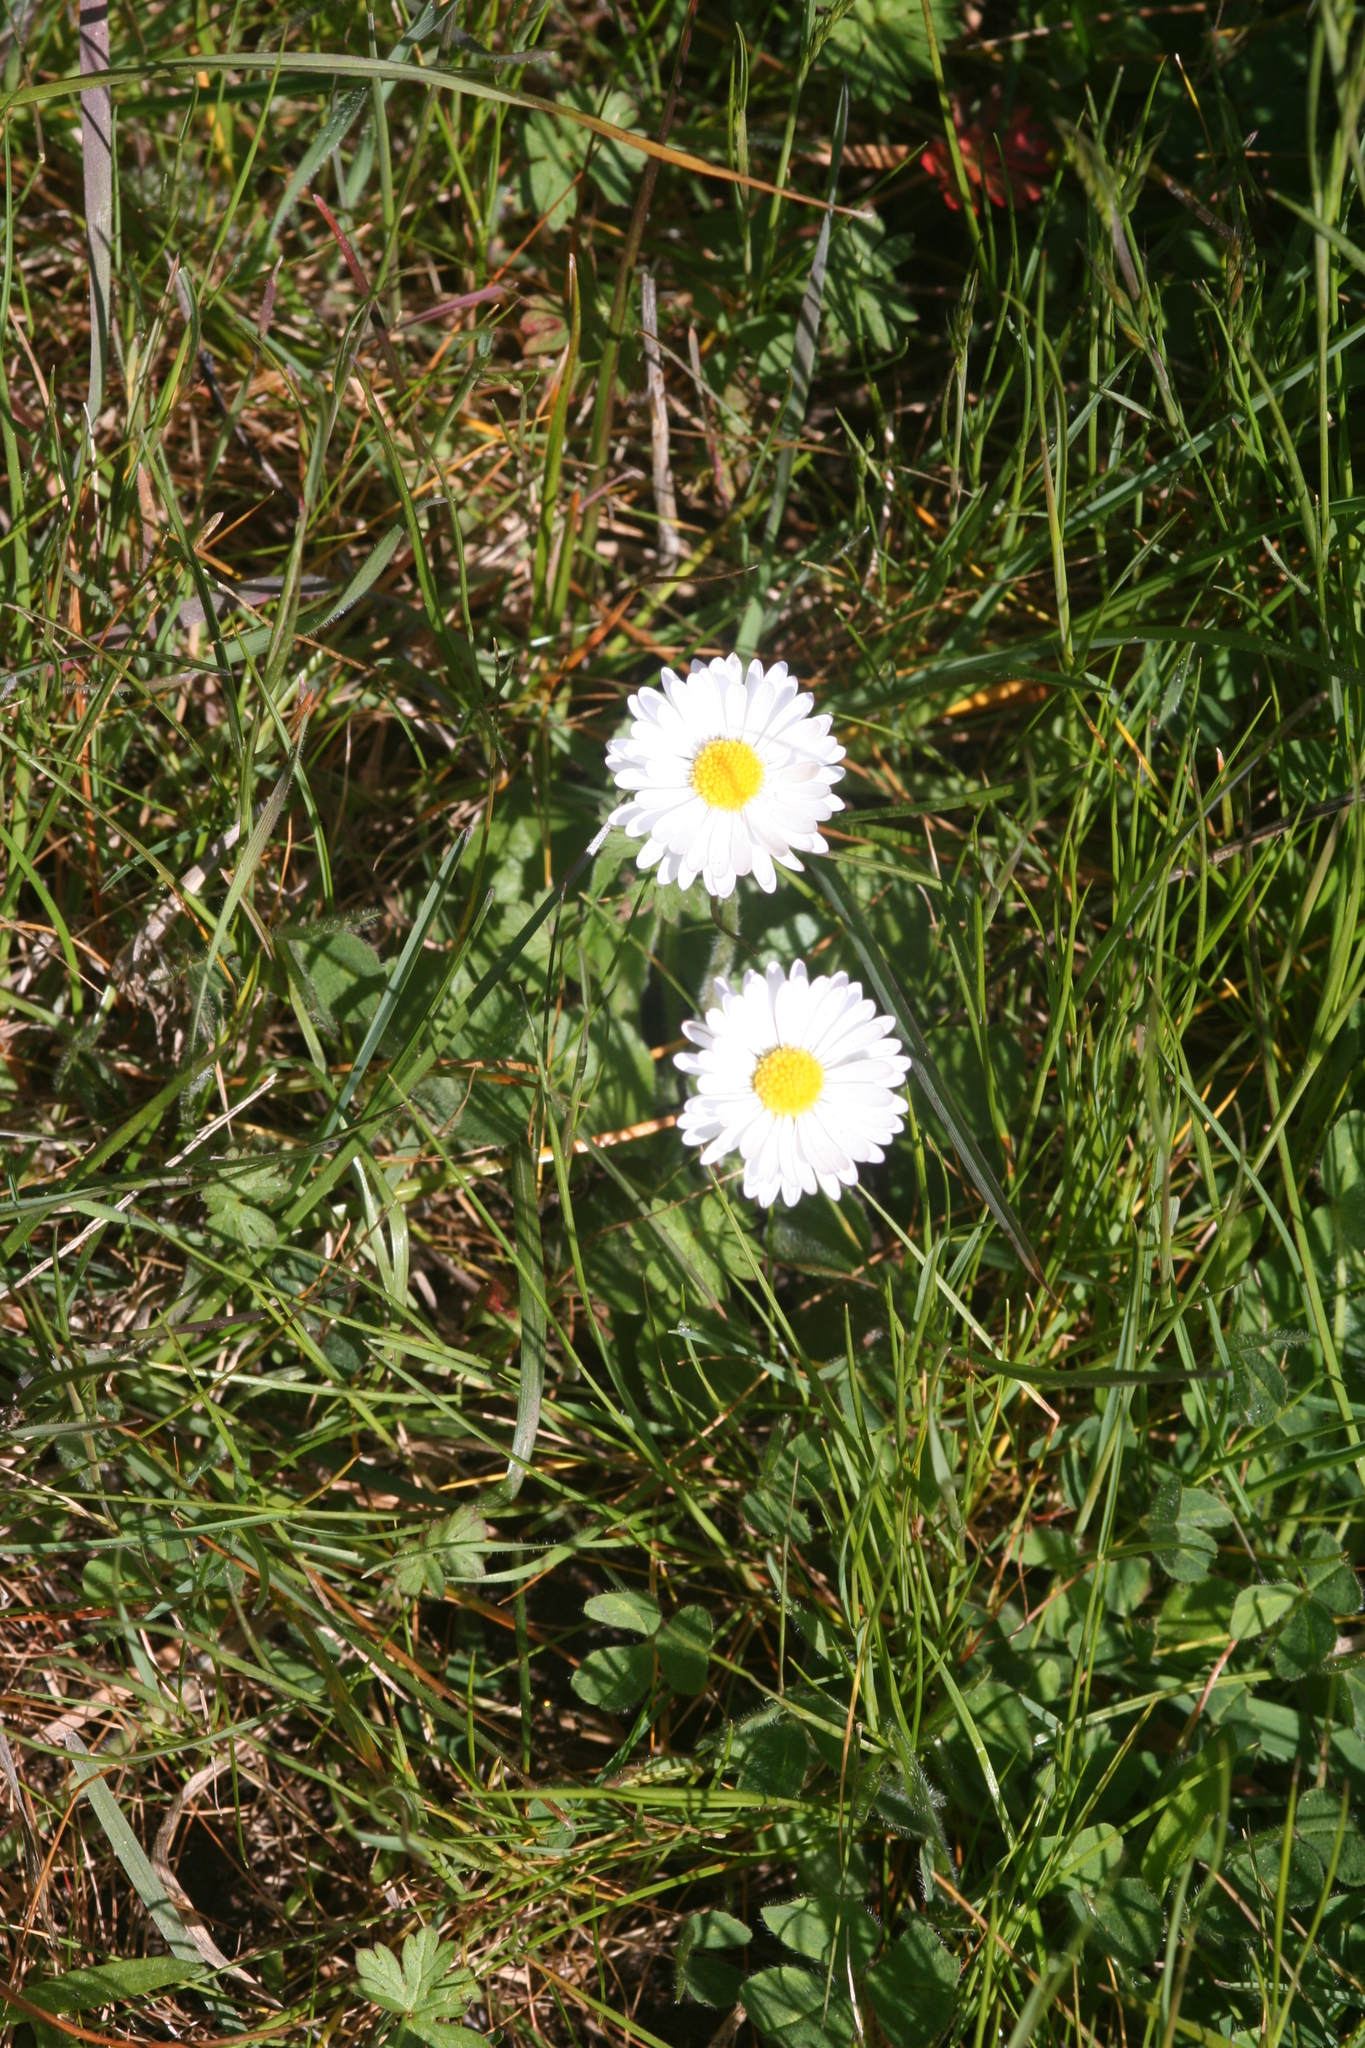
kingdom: Plantae
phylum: Tracheophyta
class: Magnoliopsida
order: Asterales
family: Asteraceae
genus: Bellis
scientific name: Bellis perennis
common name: Lawndaisy
